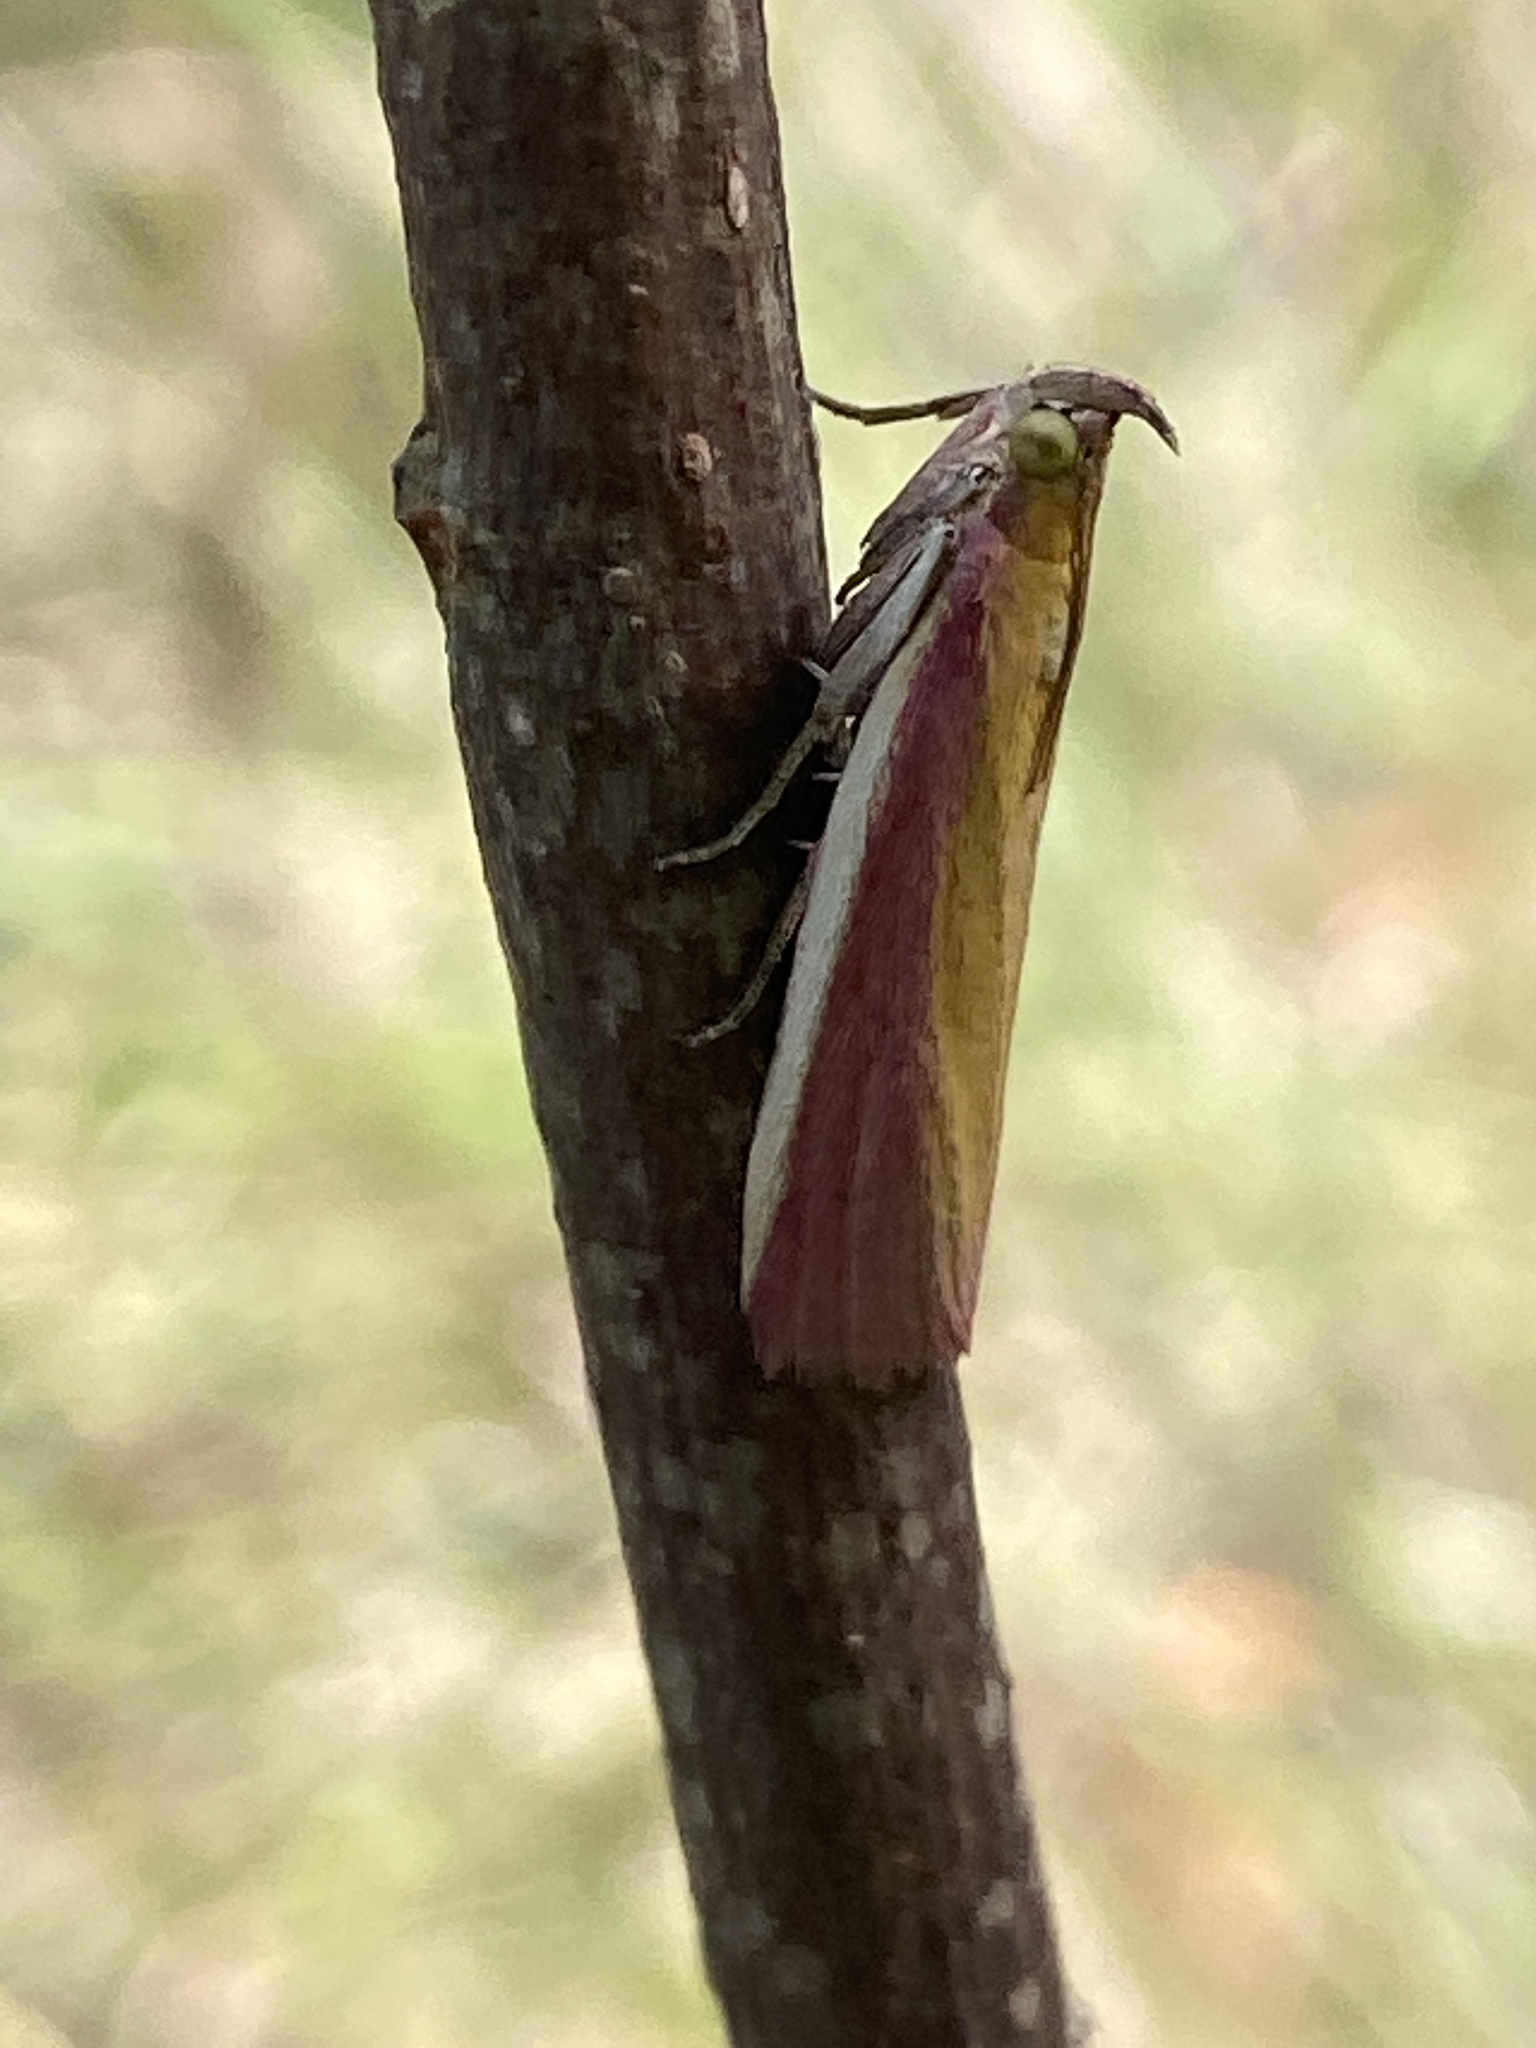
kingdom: Animalia
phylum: Arthropoda
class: Insecta
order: Lepidoptera
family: Pyralidae
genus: Oncocera
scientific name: Oncocera semirubella
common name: Rosy-striped knot-horn
